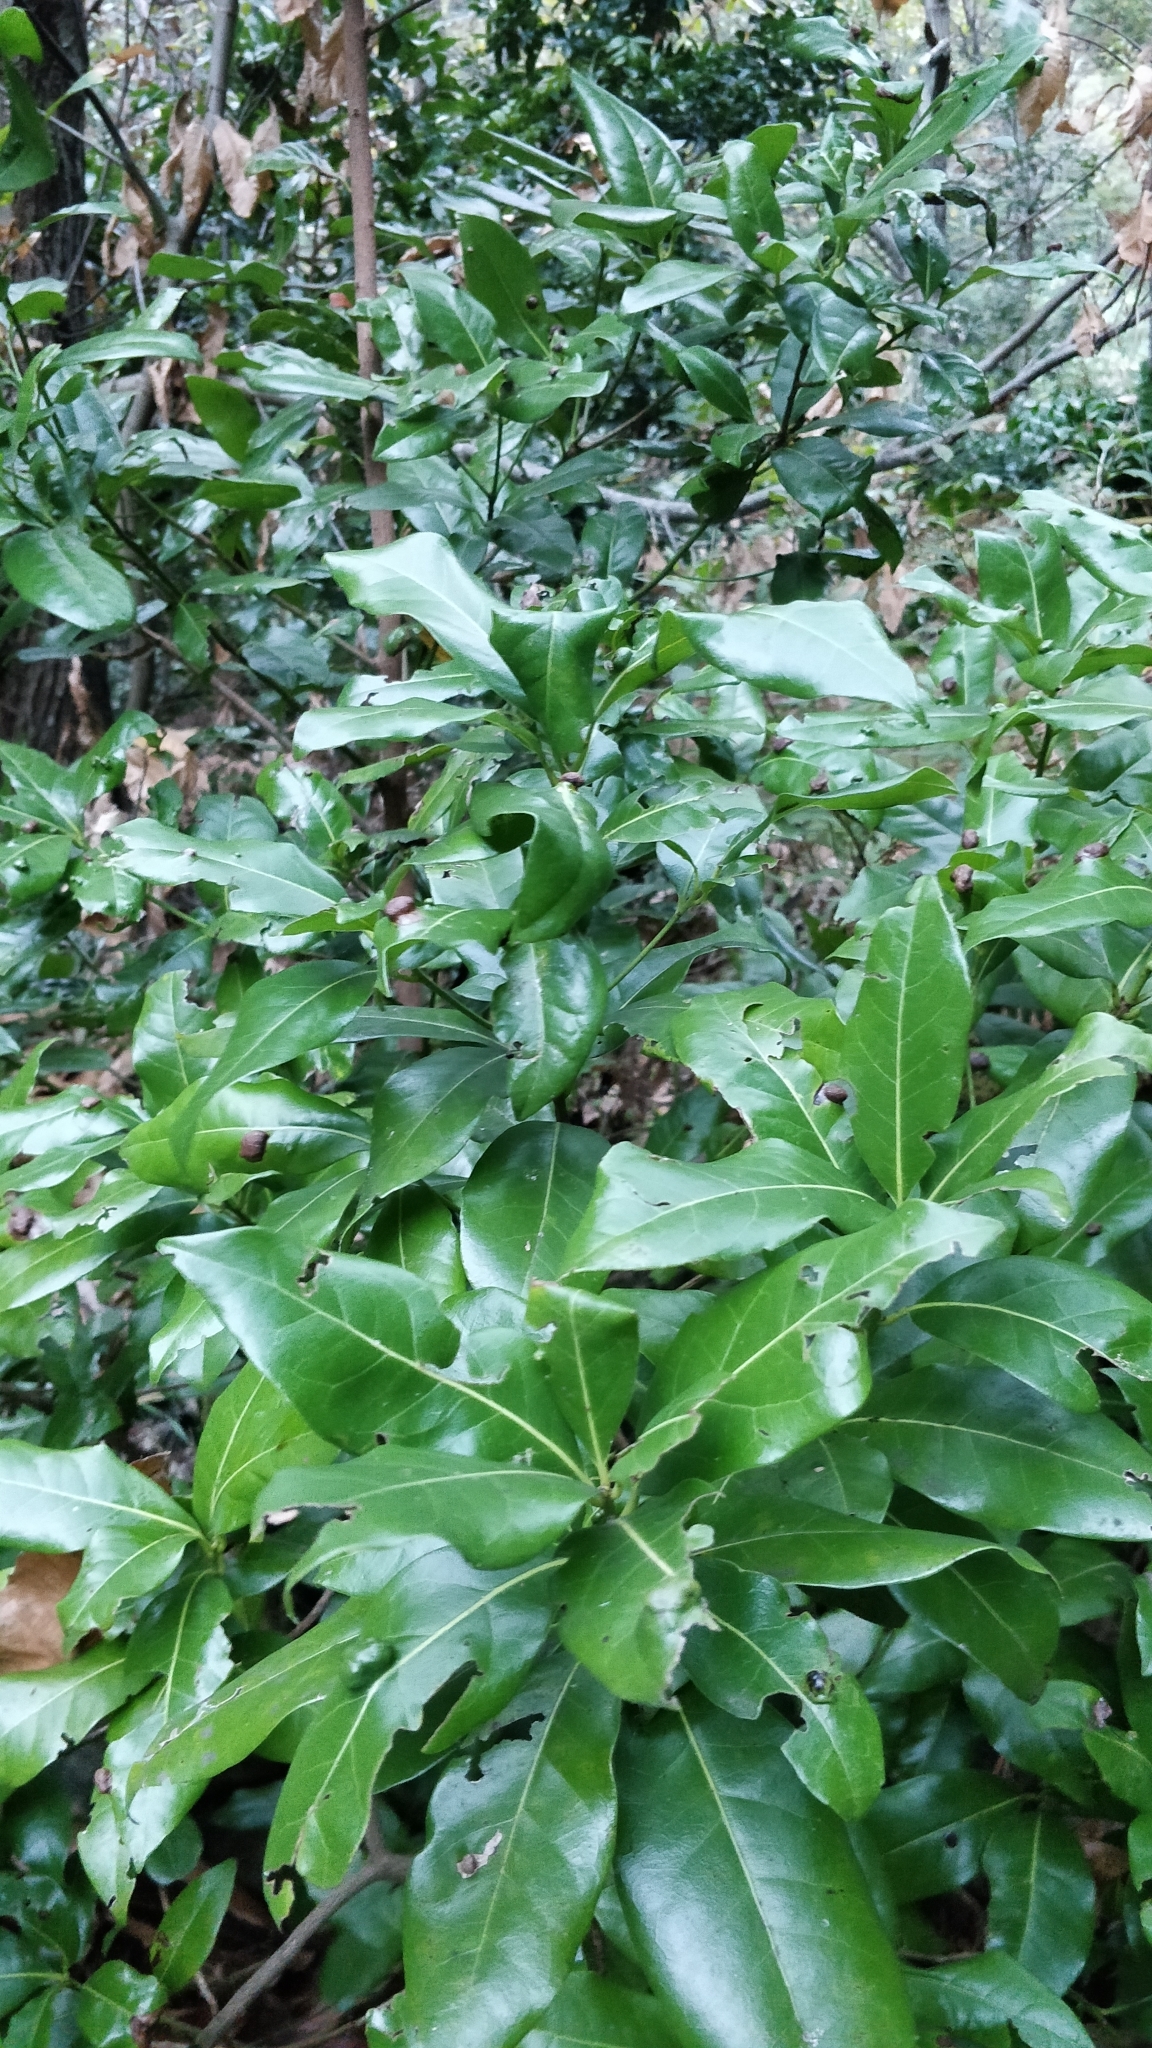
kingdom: Plantae
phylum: Tracheophyta
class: Magnoliopsida
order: Laurales
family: Lauraceae
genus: Apollonias
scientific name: Apollonias barbujana
